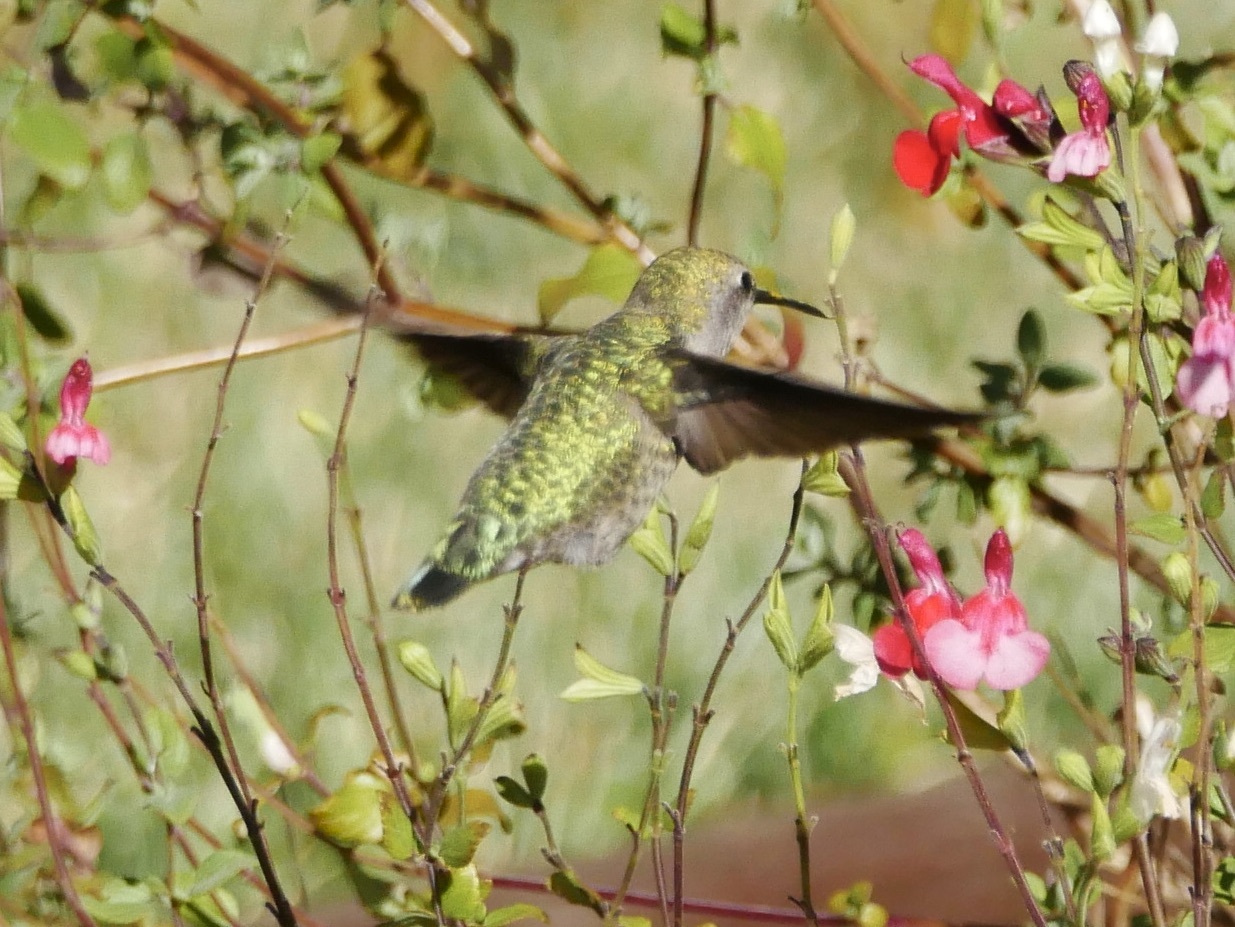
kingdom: Animalia
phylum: Chordata
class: Aves
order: Apodiformes
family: Trochilidae
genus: Calypte
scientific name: Calypte anna
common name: Anna's hummingbird
